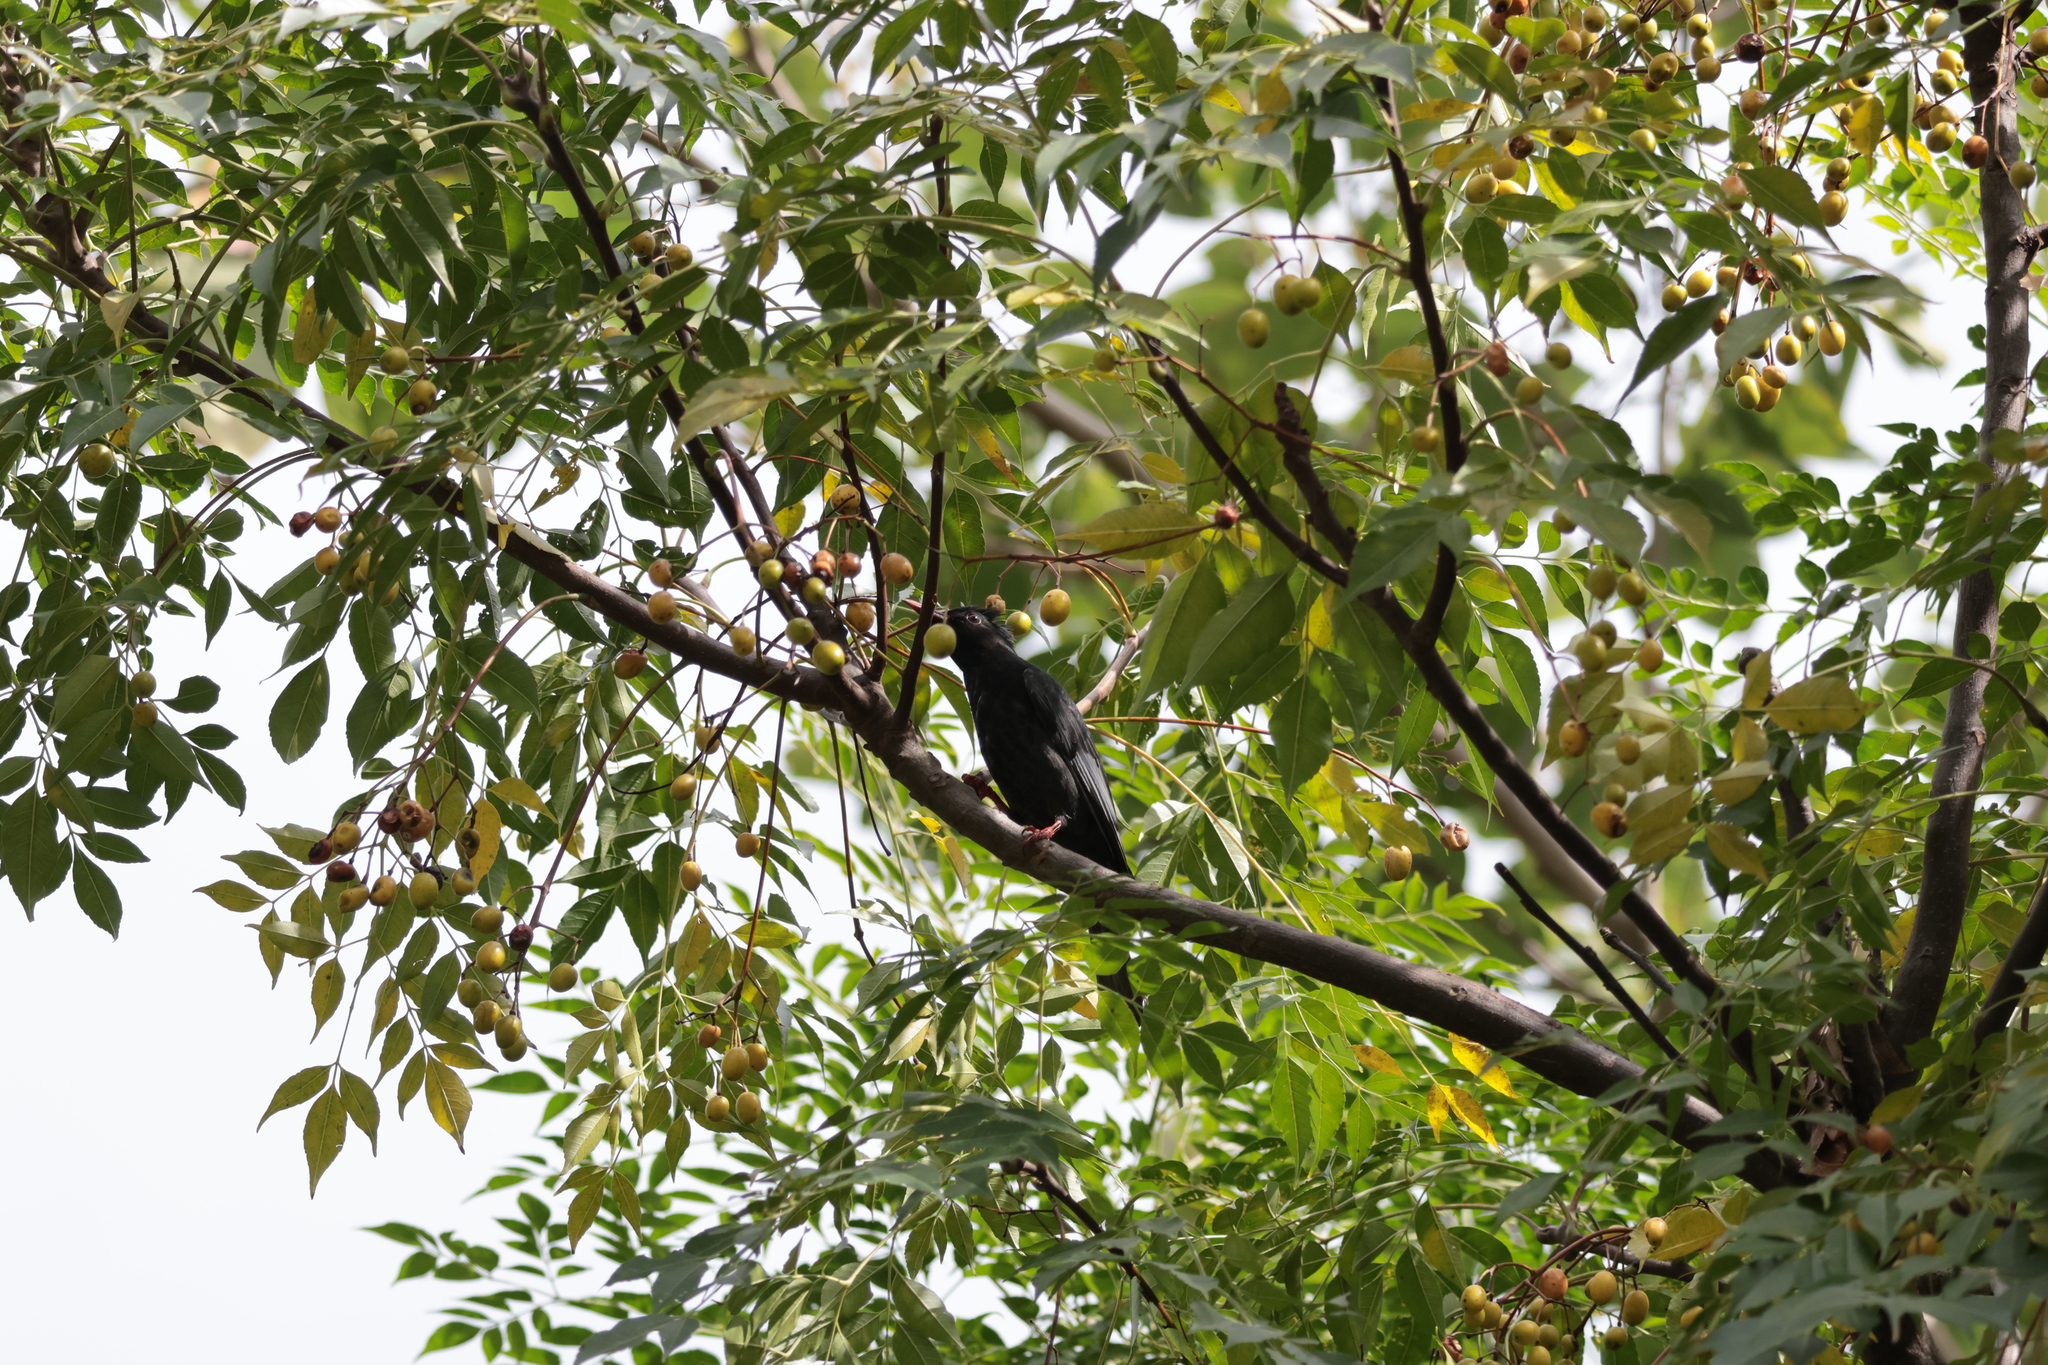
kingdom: Animalia
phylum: Chordata
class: Aves
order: Passeriformes
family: Pycnonotidae
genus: Hypsipetes
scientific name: Hypsipetes leucocephalus
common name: Black bulbul
